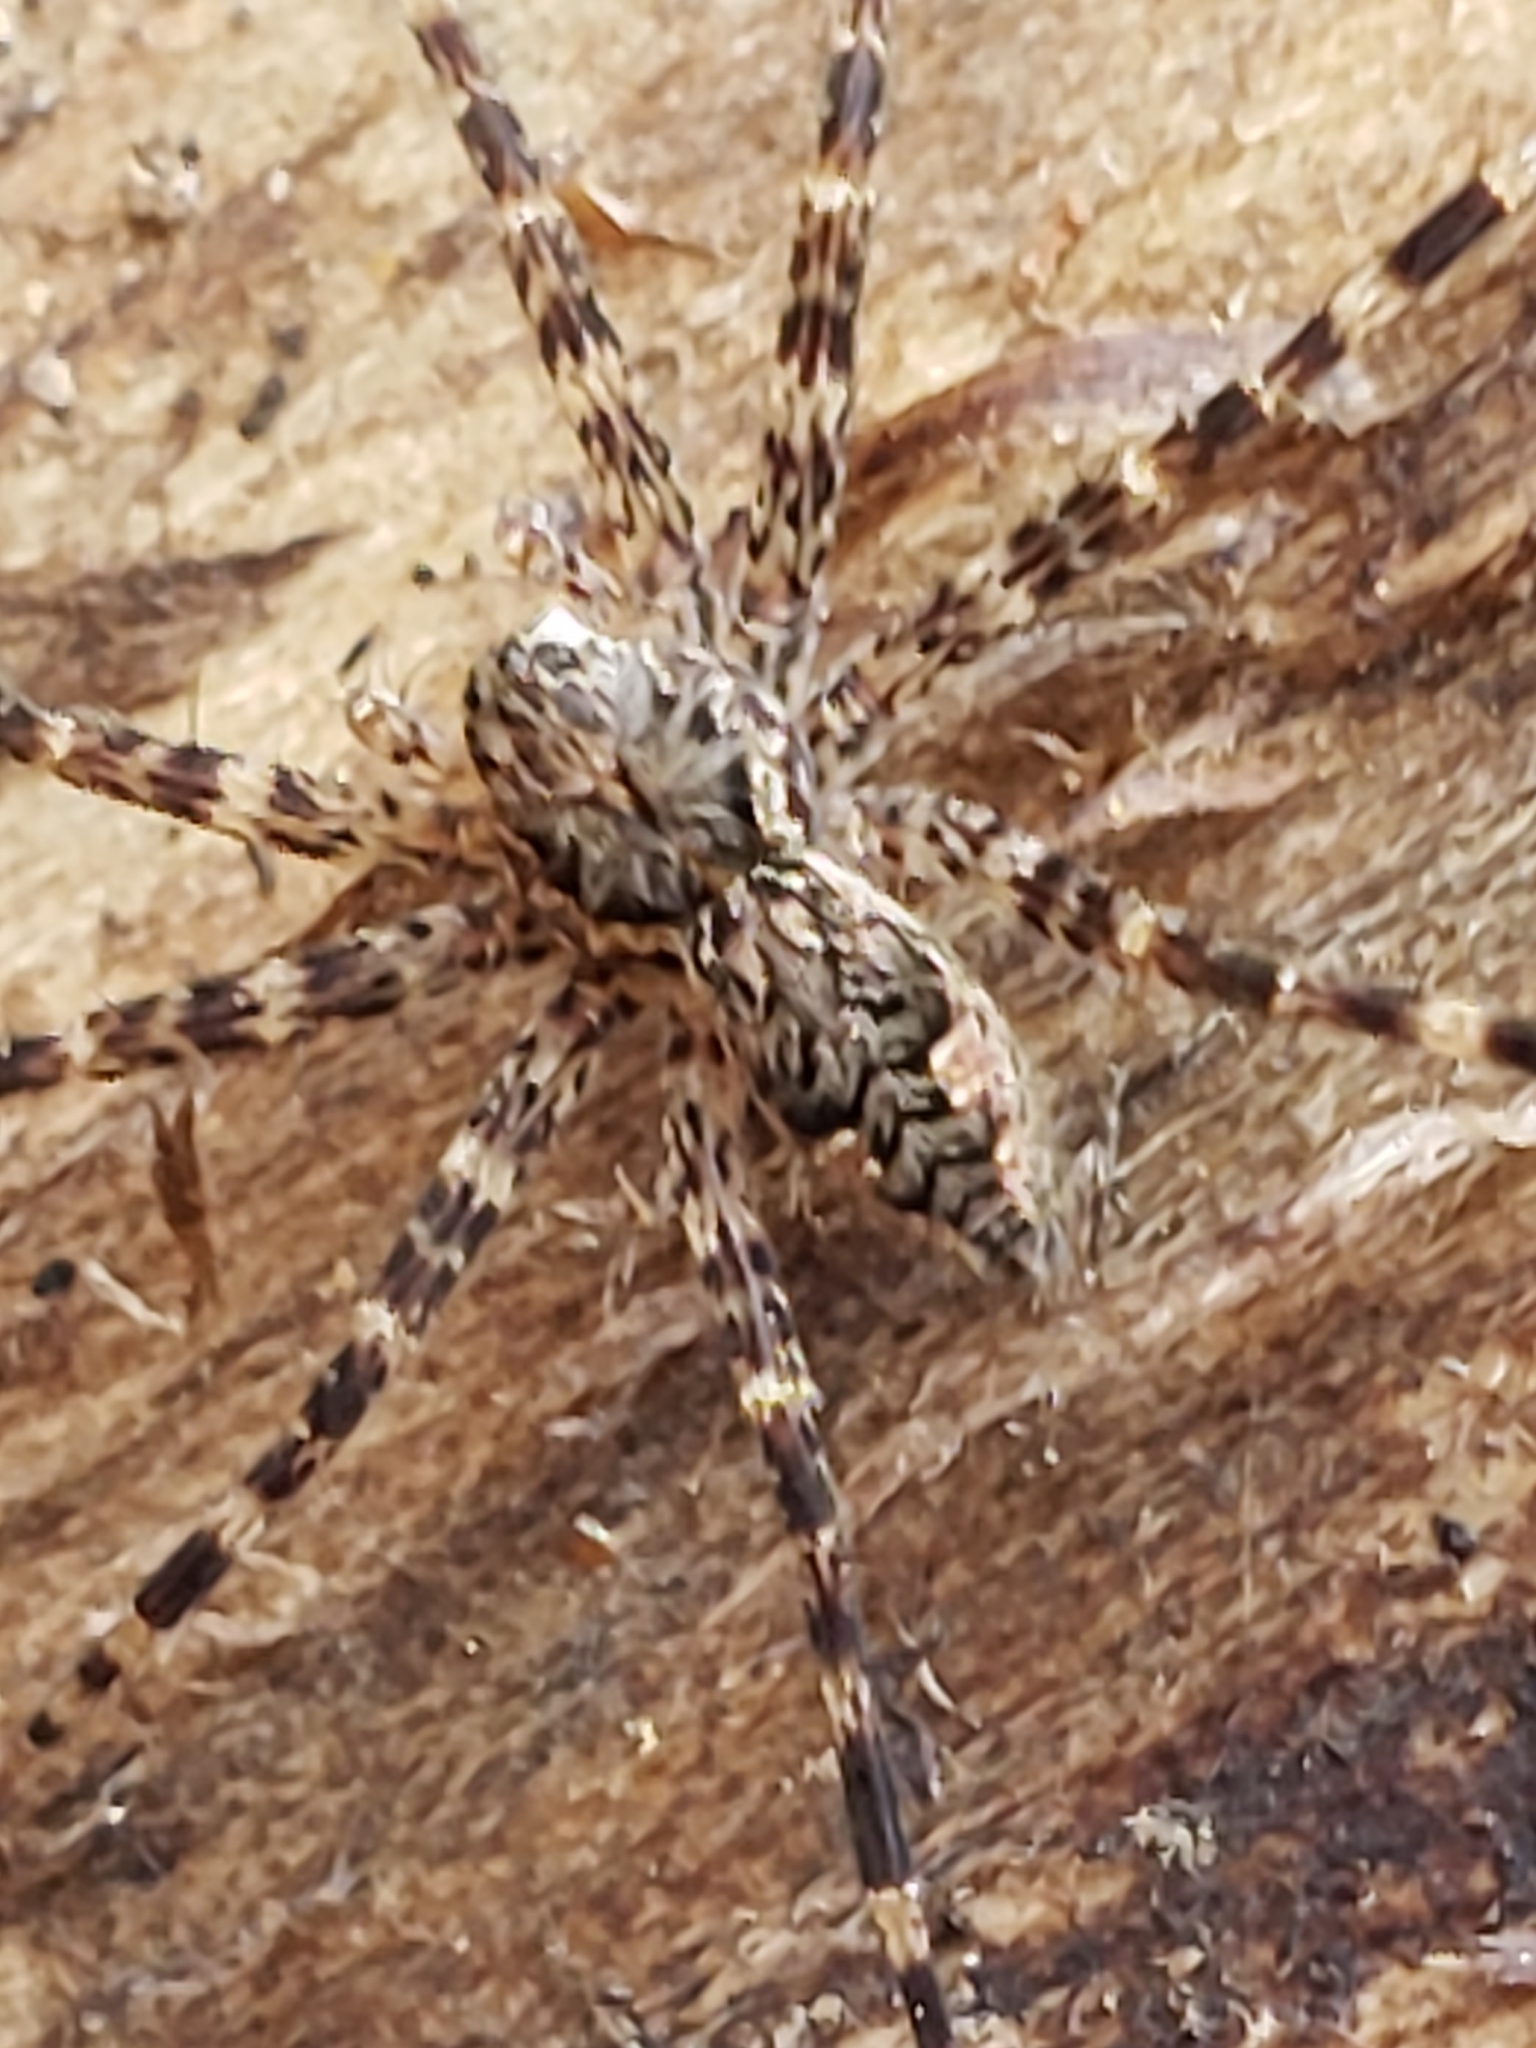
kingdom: Animalia
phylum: Arthropoda
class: Arachnida
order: Araneae
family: Pisauridae
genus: Dolomedes
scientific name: Dolomedes tenebrosus
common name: Dark fishing spider
